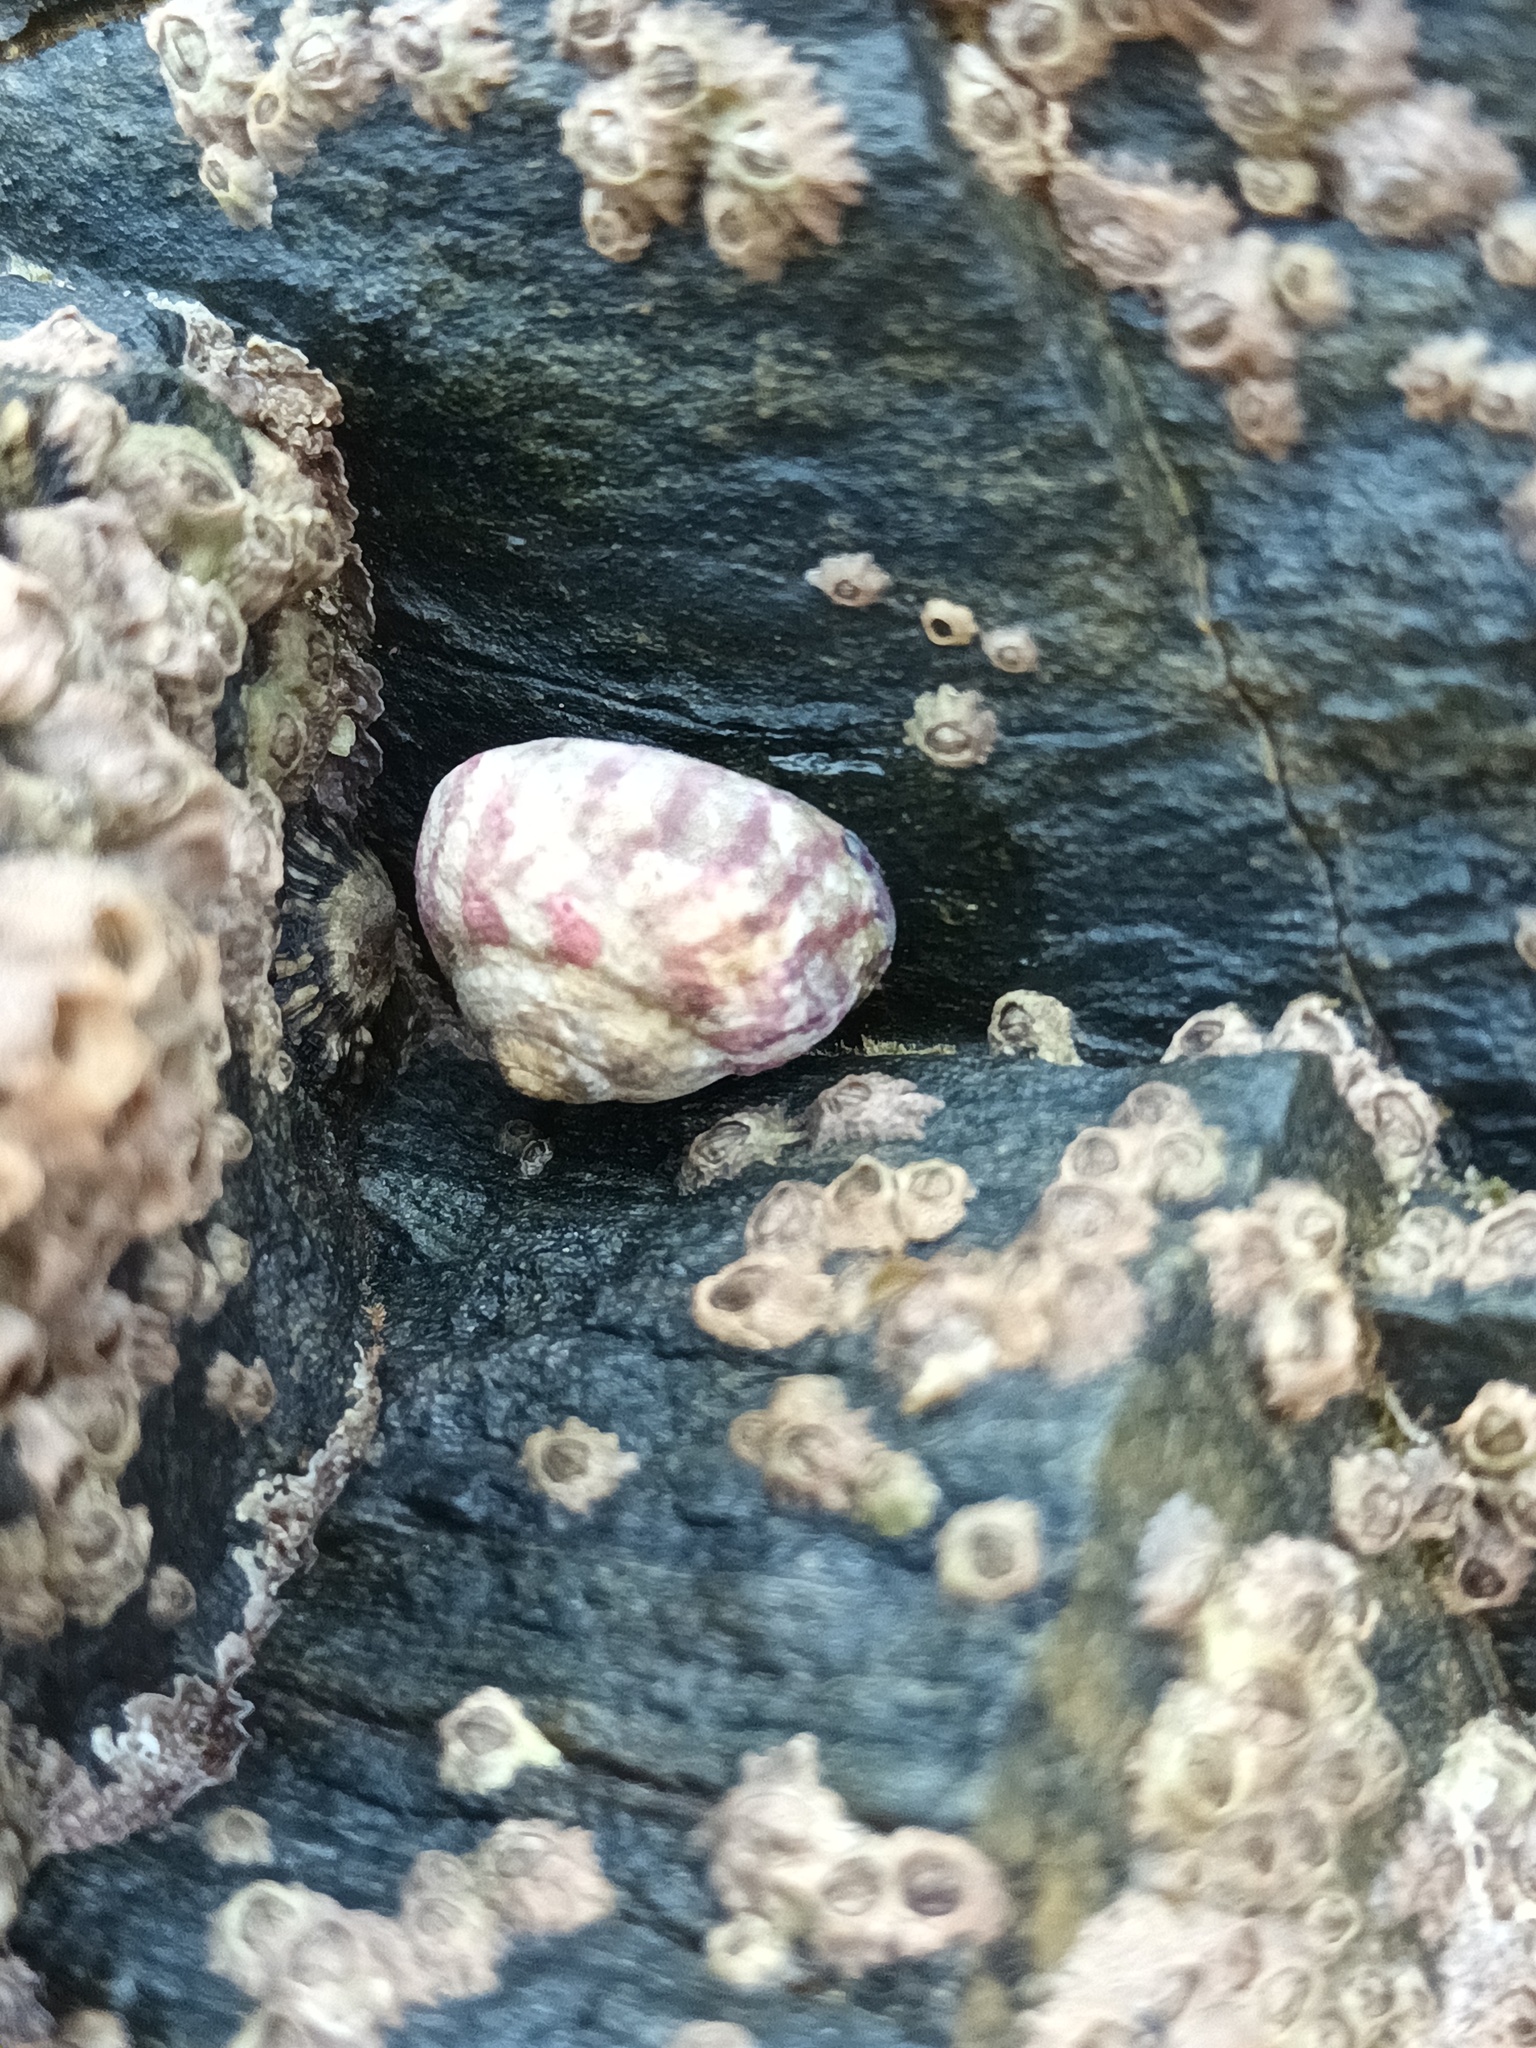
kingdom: Animalia
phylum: Mollusca
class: Gastropoda
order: Trochida
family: Trochidae
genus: Steromphala
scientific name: Steromphala umbilicalis
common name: Flat top shell
